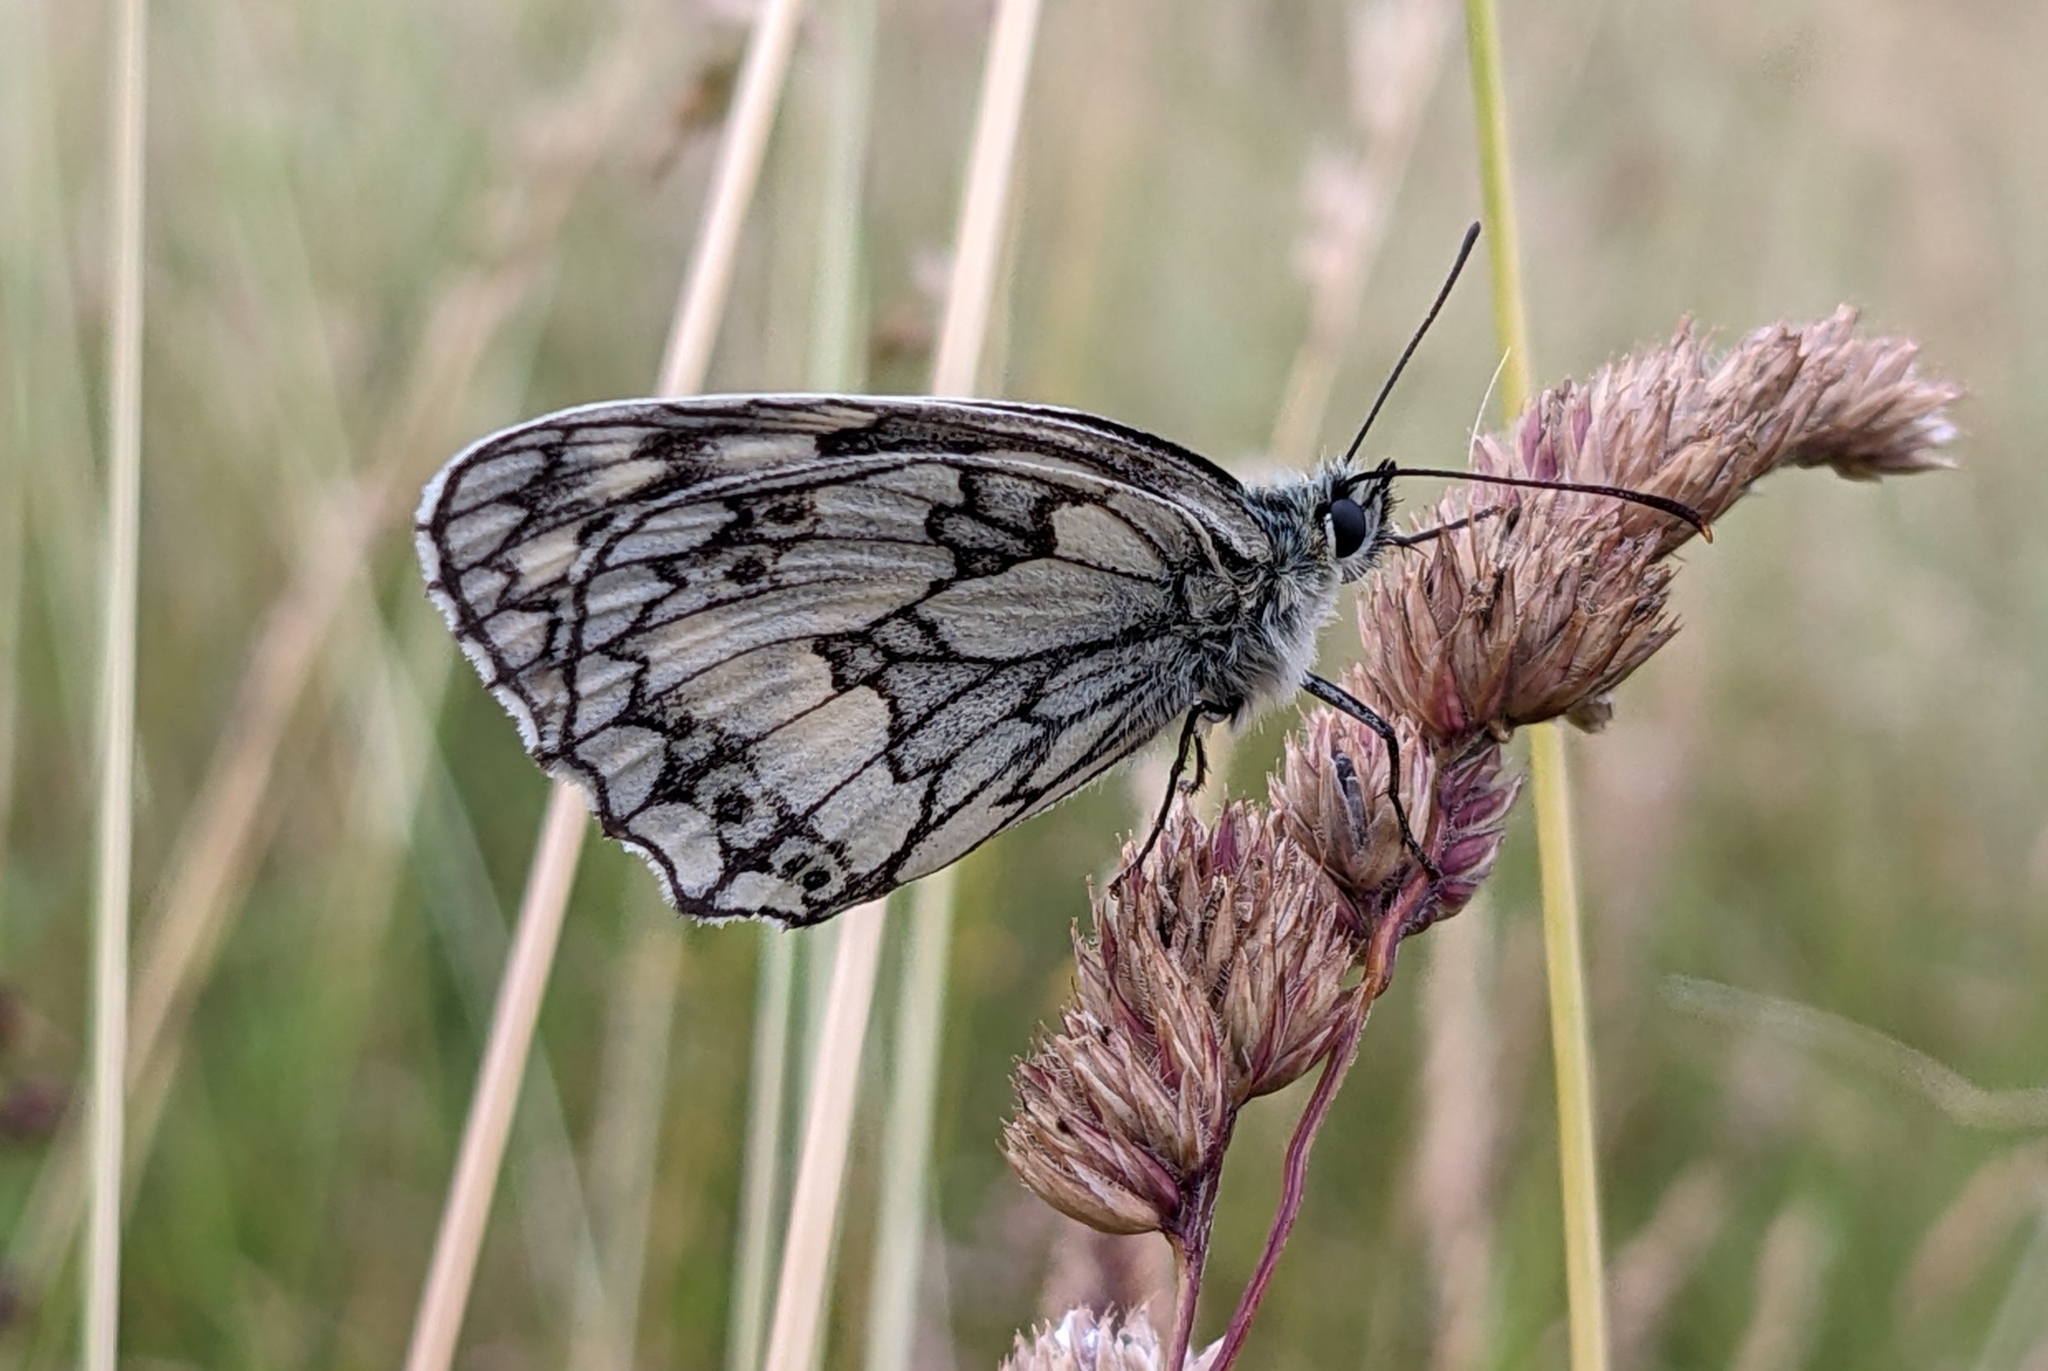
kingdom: Animalia
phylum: Arthropoda
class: Insecta
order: Lepidoptera
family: Nymphalidae
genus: Melanargia
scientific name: Melanargia galathea
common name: Marbled white
